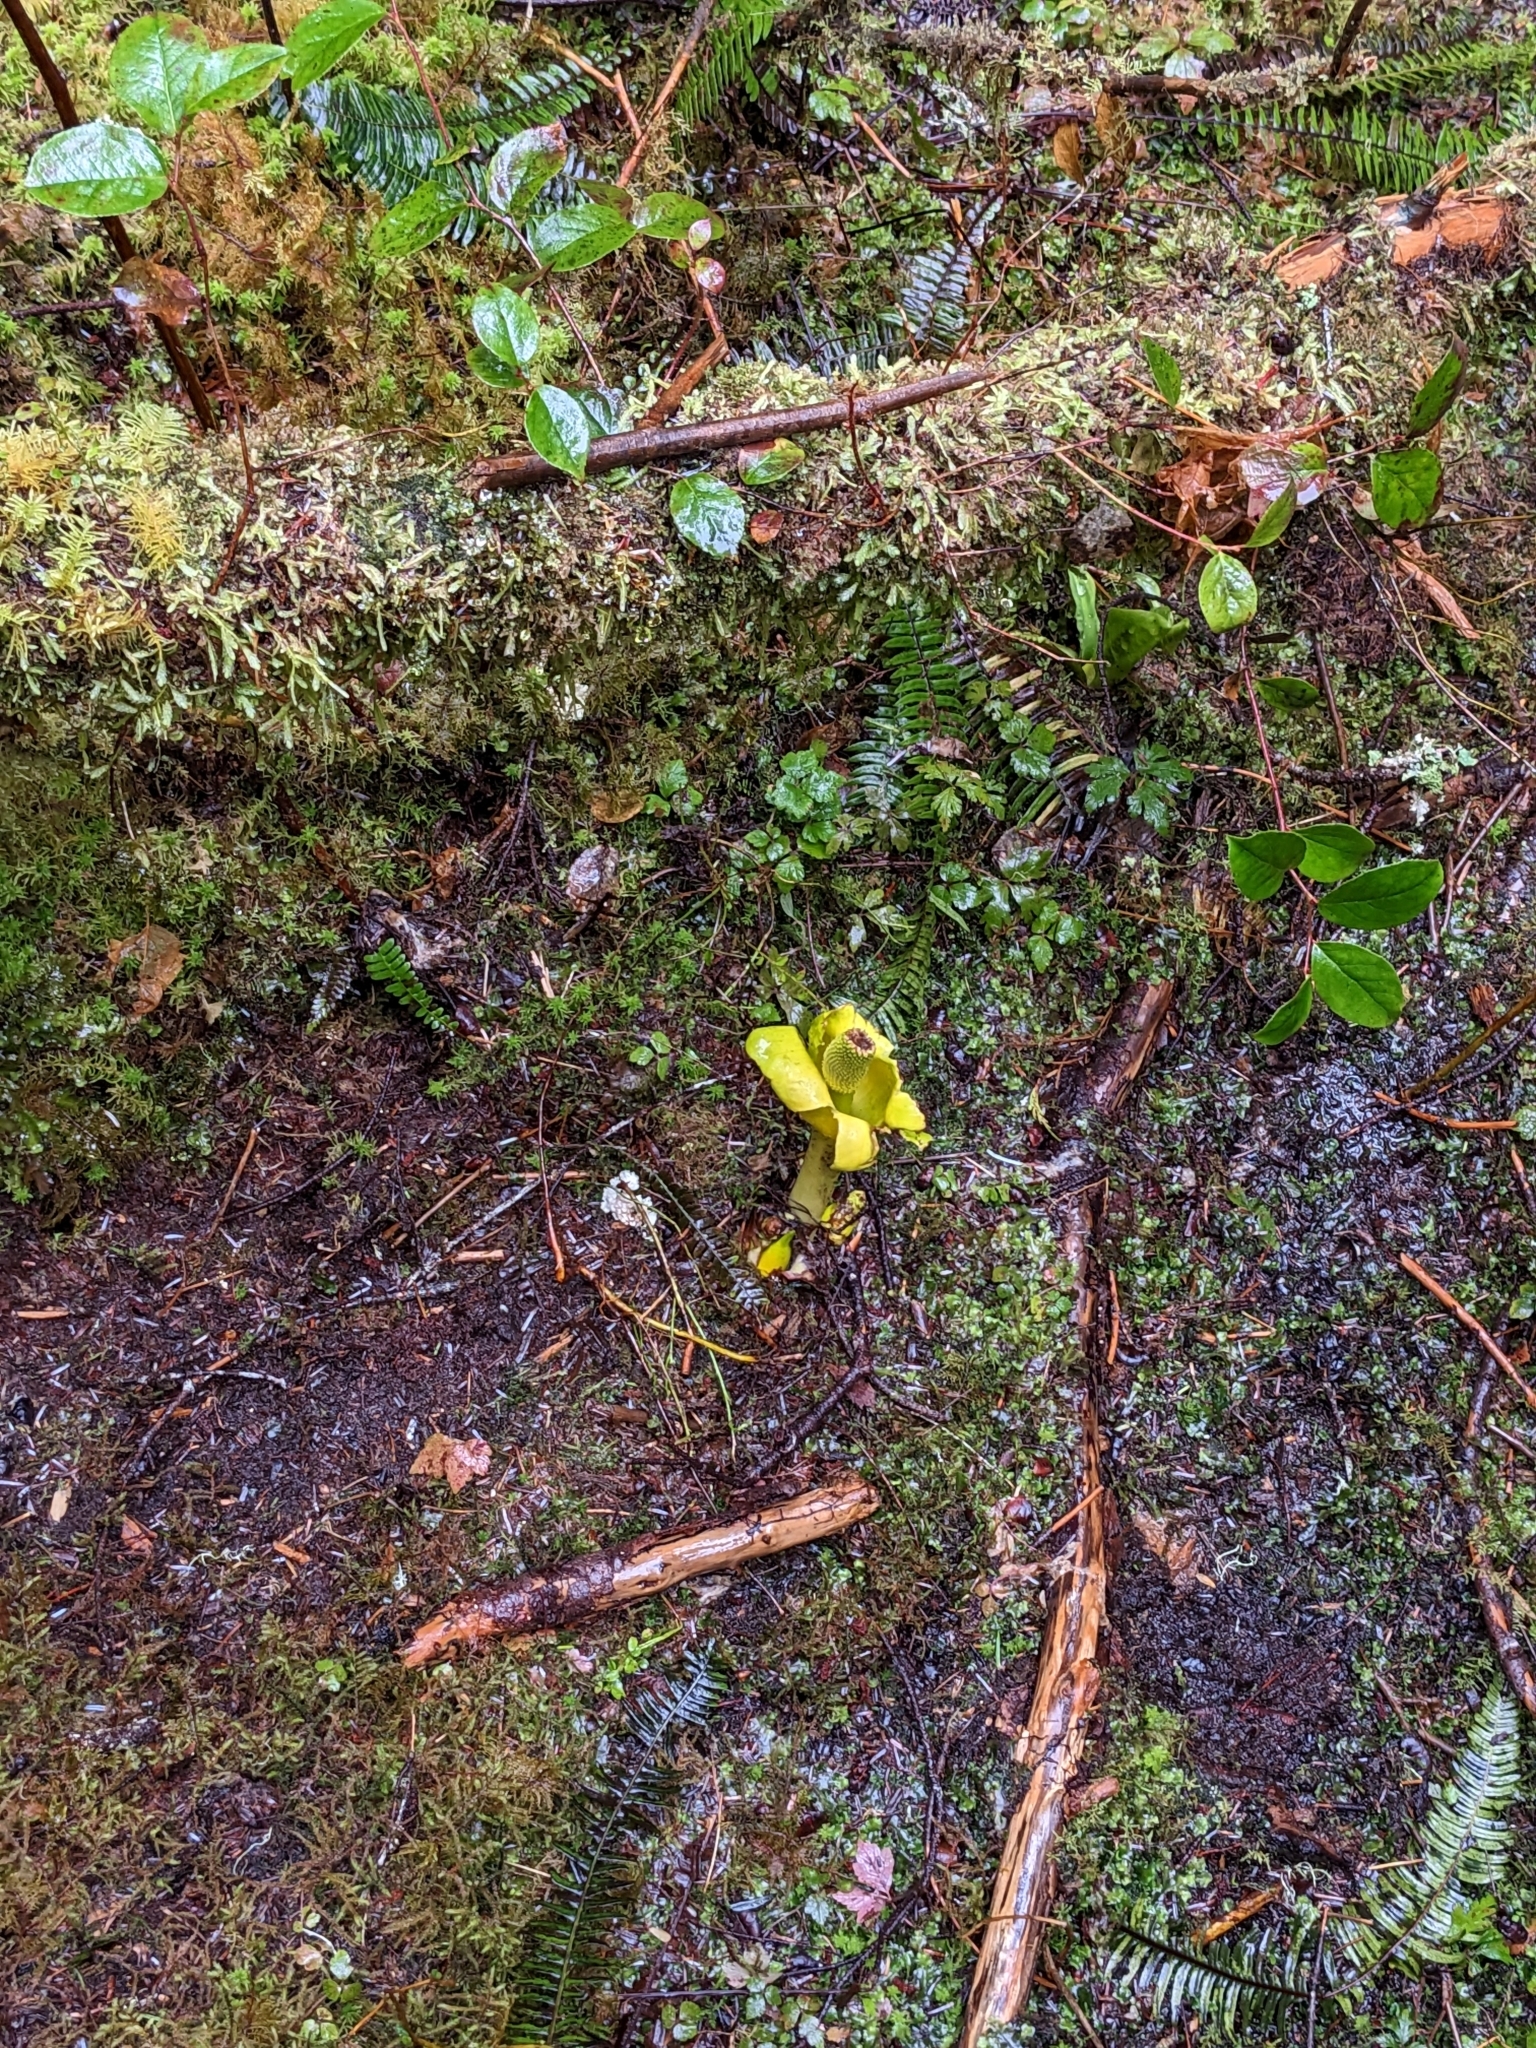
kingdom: Plantae
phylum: Tracheophyta
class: Liliopsida
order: Alismatales
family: Araceae
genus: Lysichiton
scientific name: Lysichiton americanus
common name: American skunk cabbage
